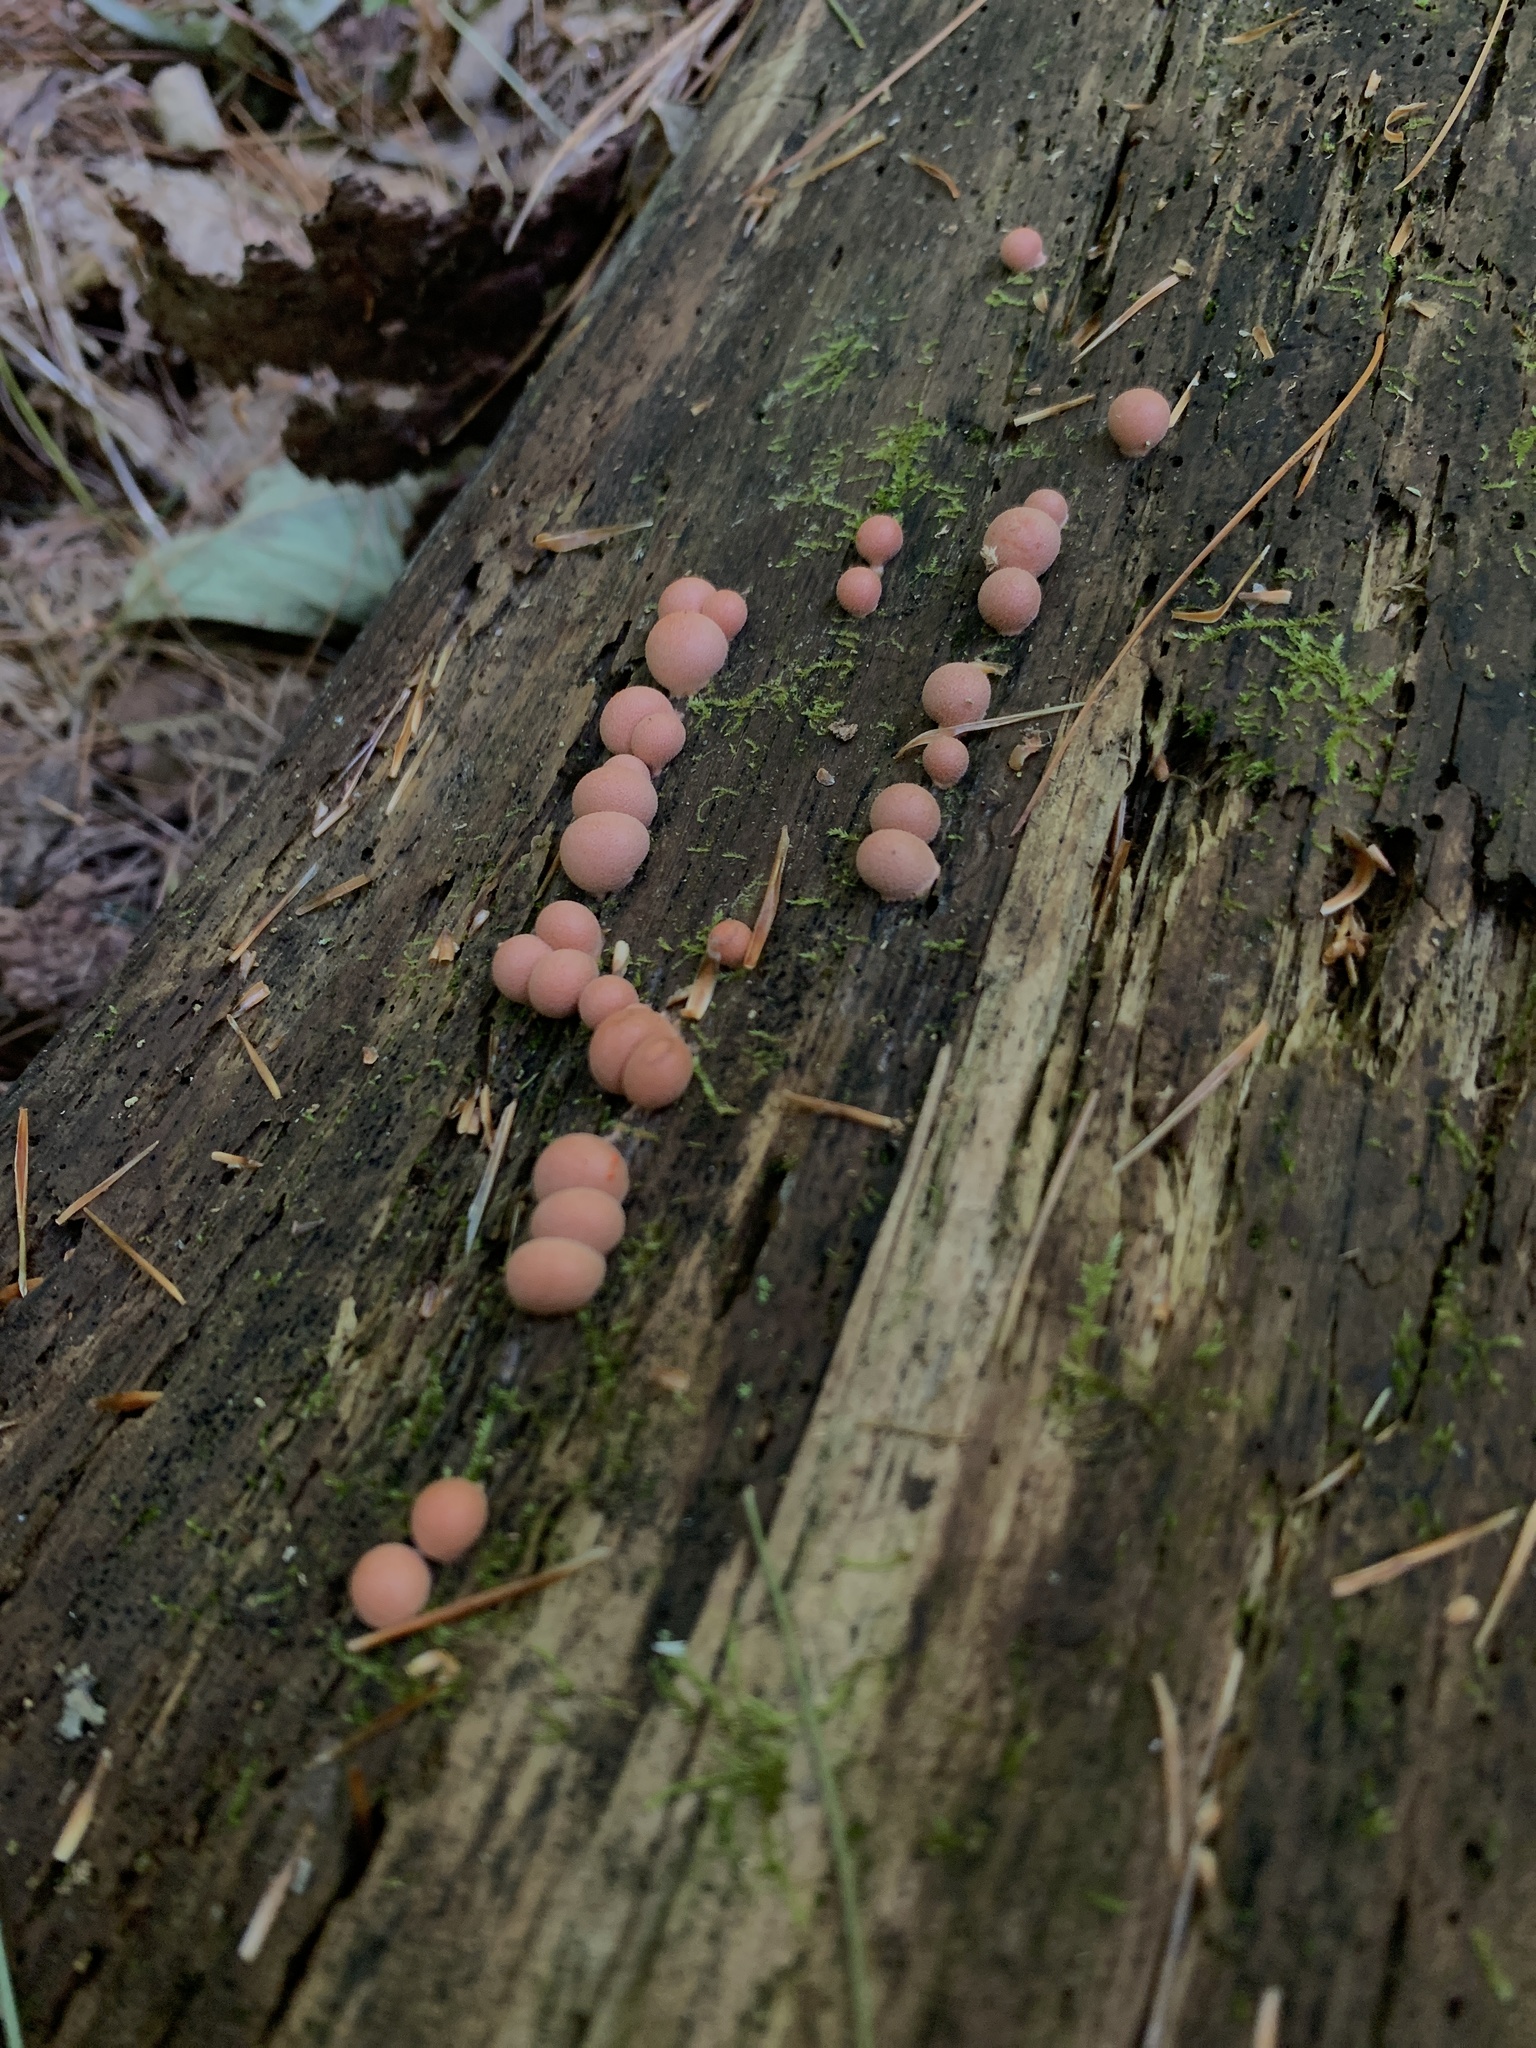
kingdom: Protozoa
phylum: Mycetozoa
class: Myxomycetes
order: Cribrariales
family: Tubiferaceae
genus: Lycogala
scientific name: Lycogala epidendrum
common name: Wolf's milk
